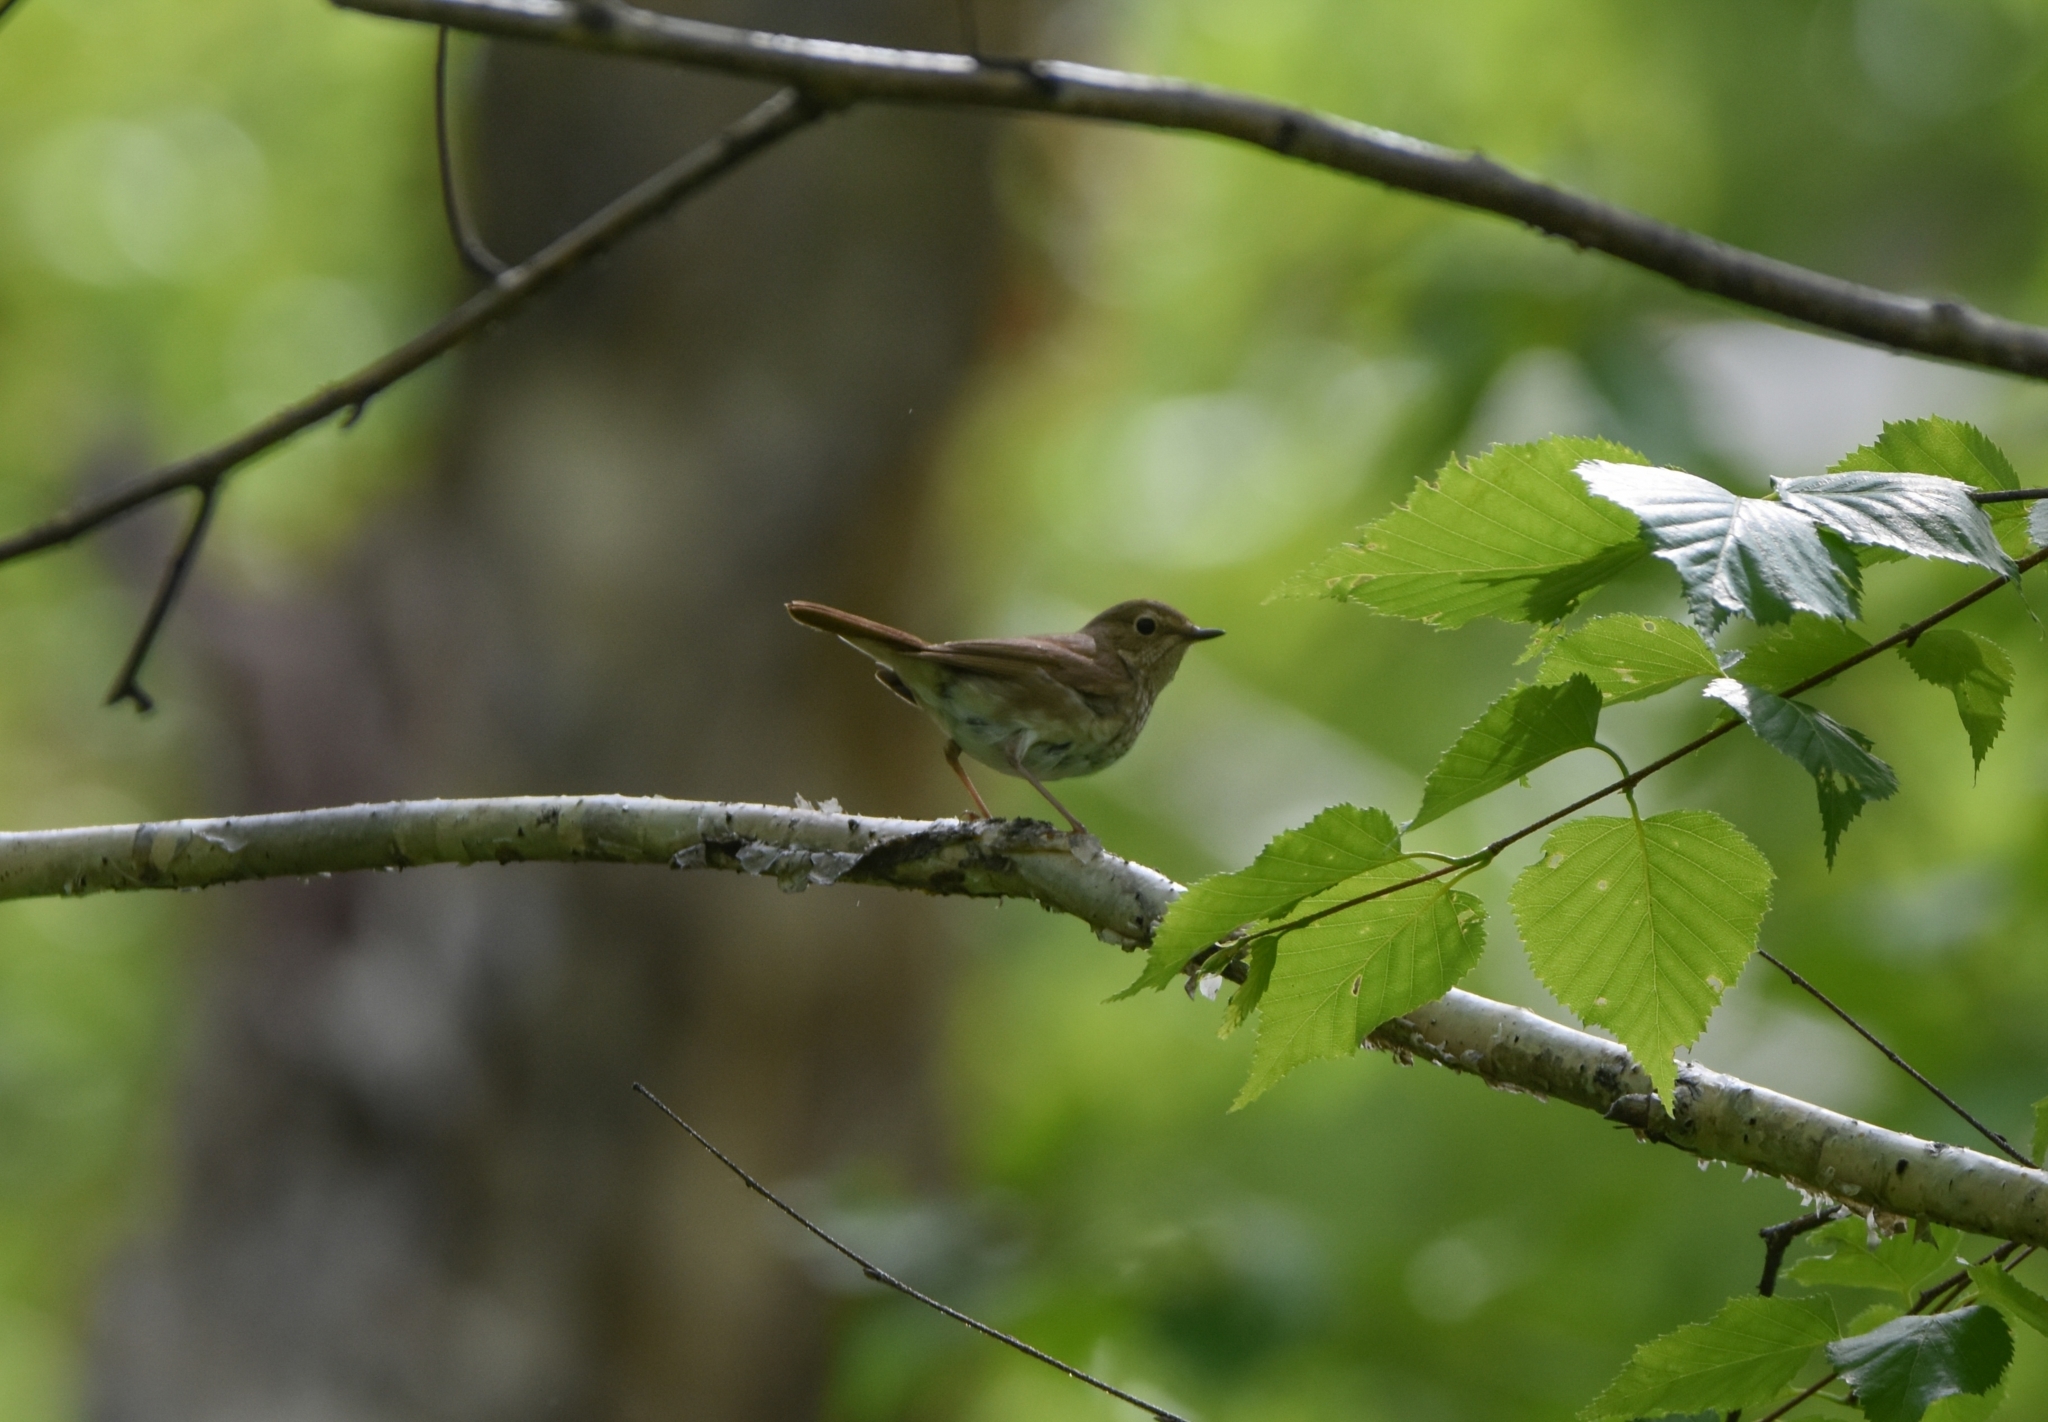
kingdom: Animalia
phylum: Chordata
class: Aves
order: Passeriformes
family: Muscicapidae
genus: Larvivora
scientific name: Larvivora sibilans
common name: Rufous-tailed robin
